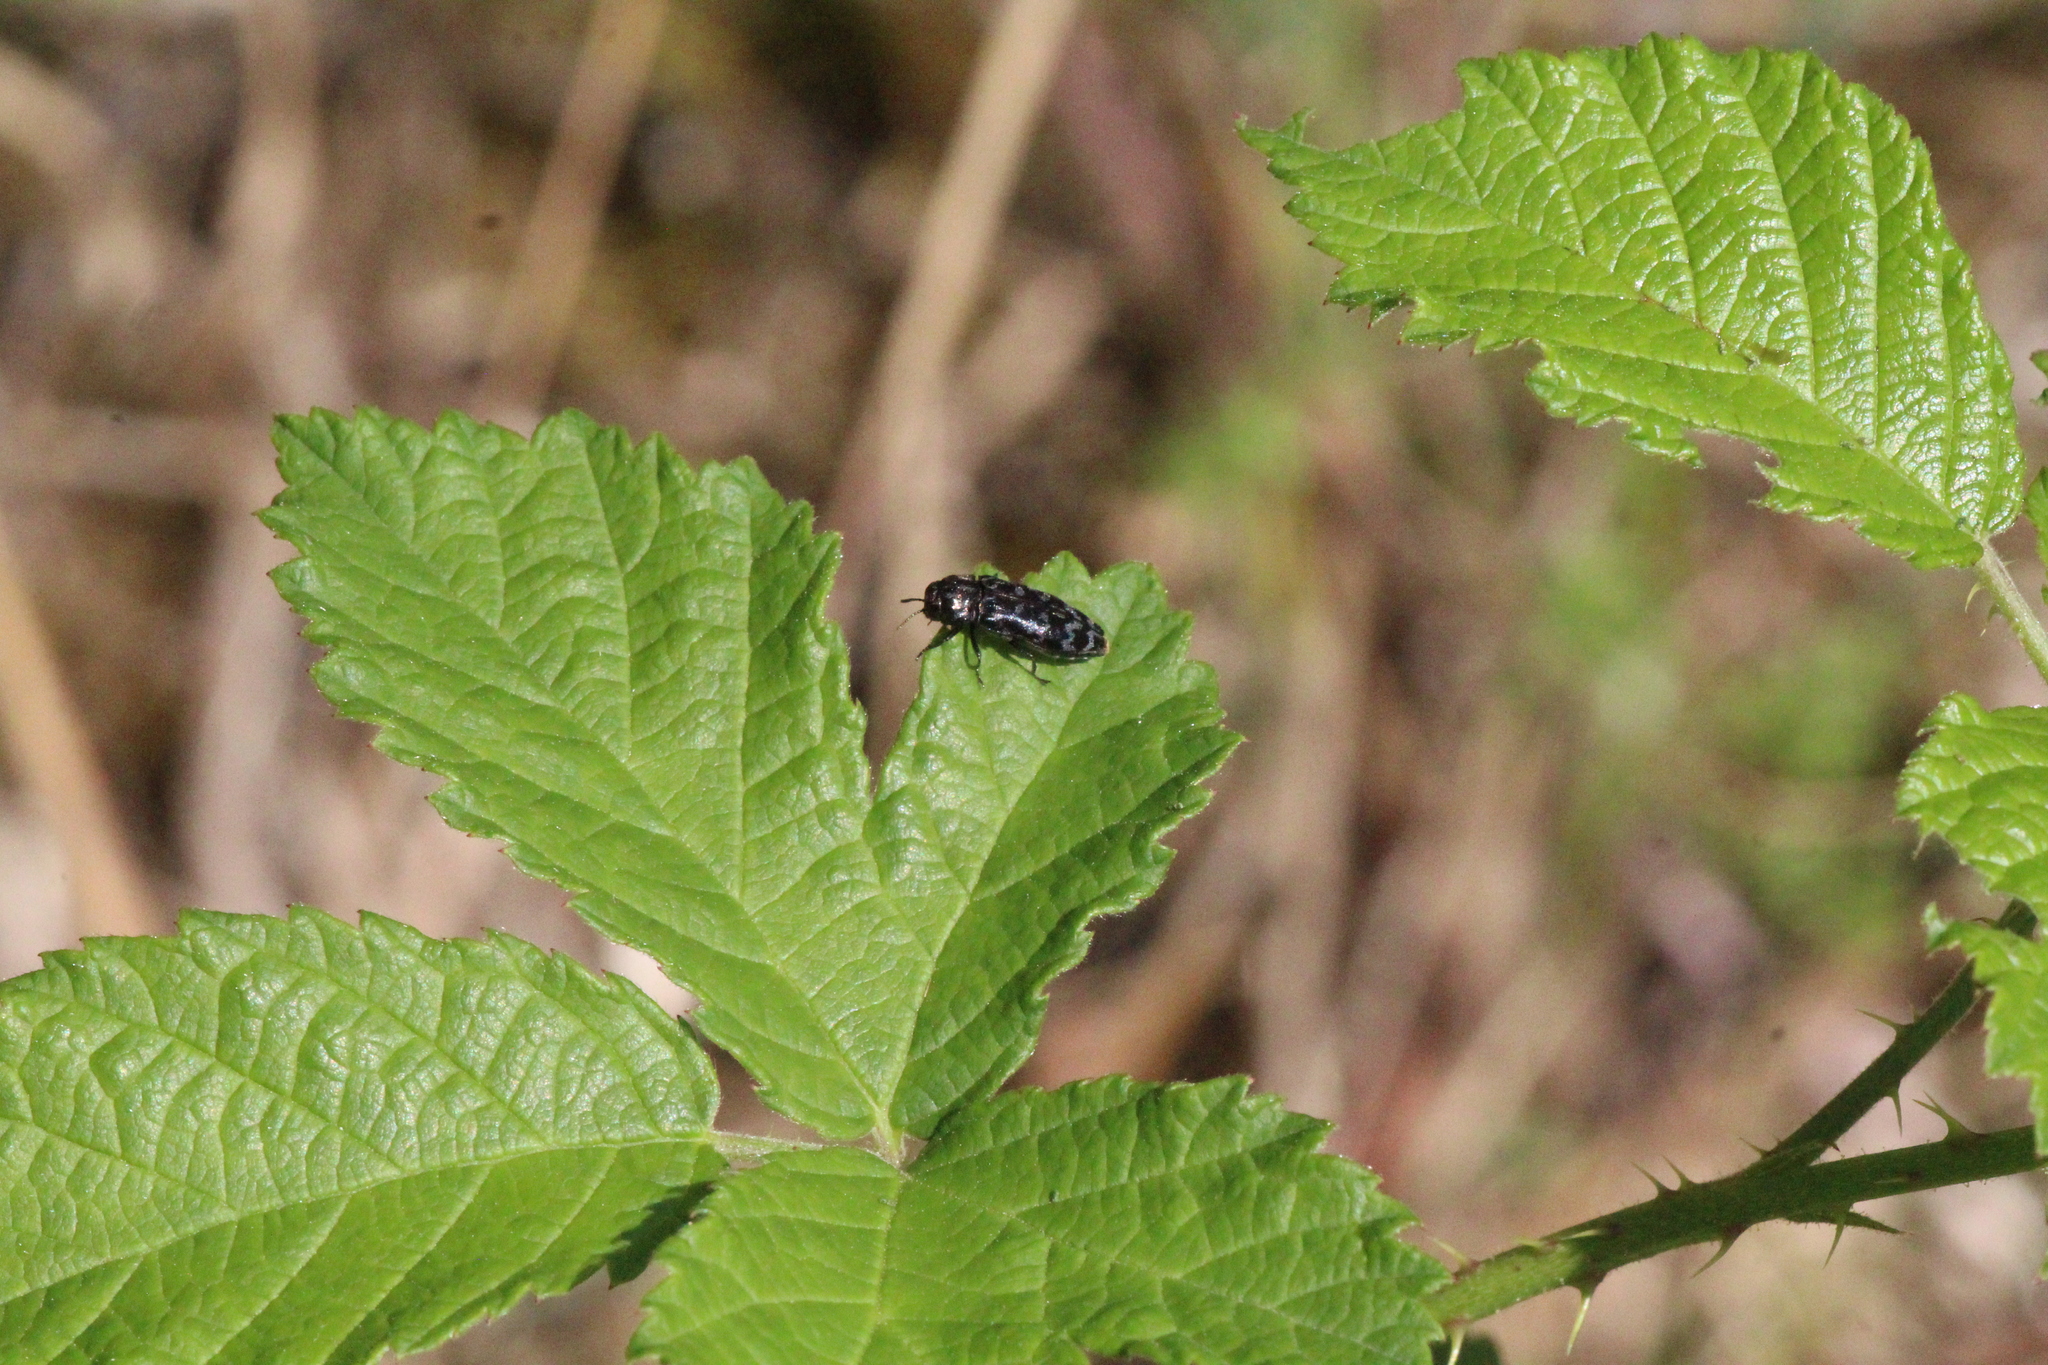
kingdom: Animalia
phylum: Arthropoda
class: Insecta
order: Coleoptera
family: Buprestidae
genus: Coraebus
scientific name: Coraebus rubi
